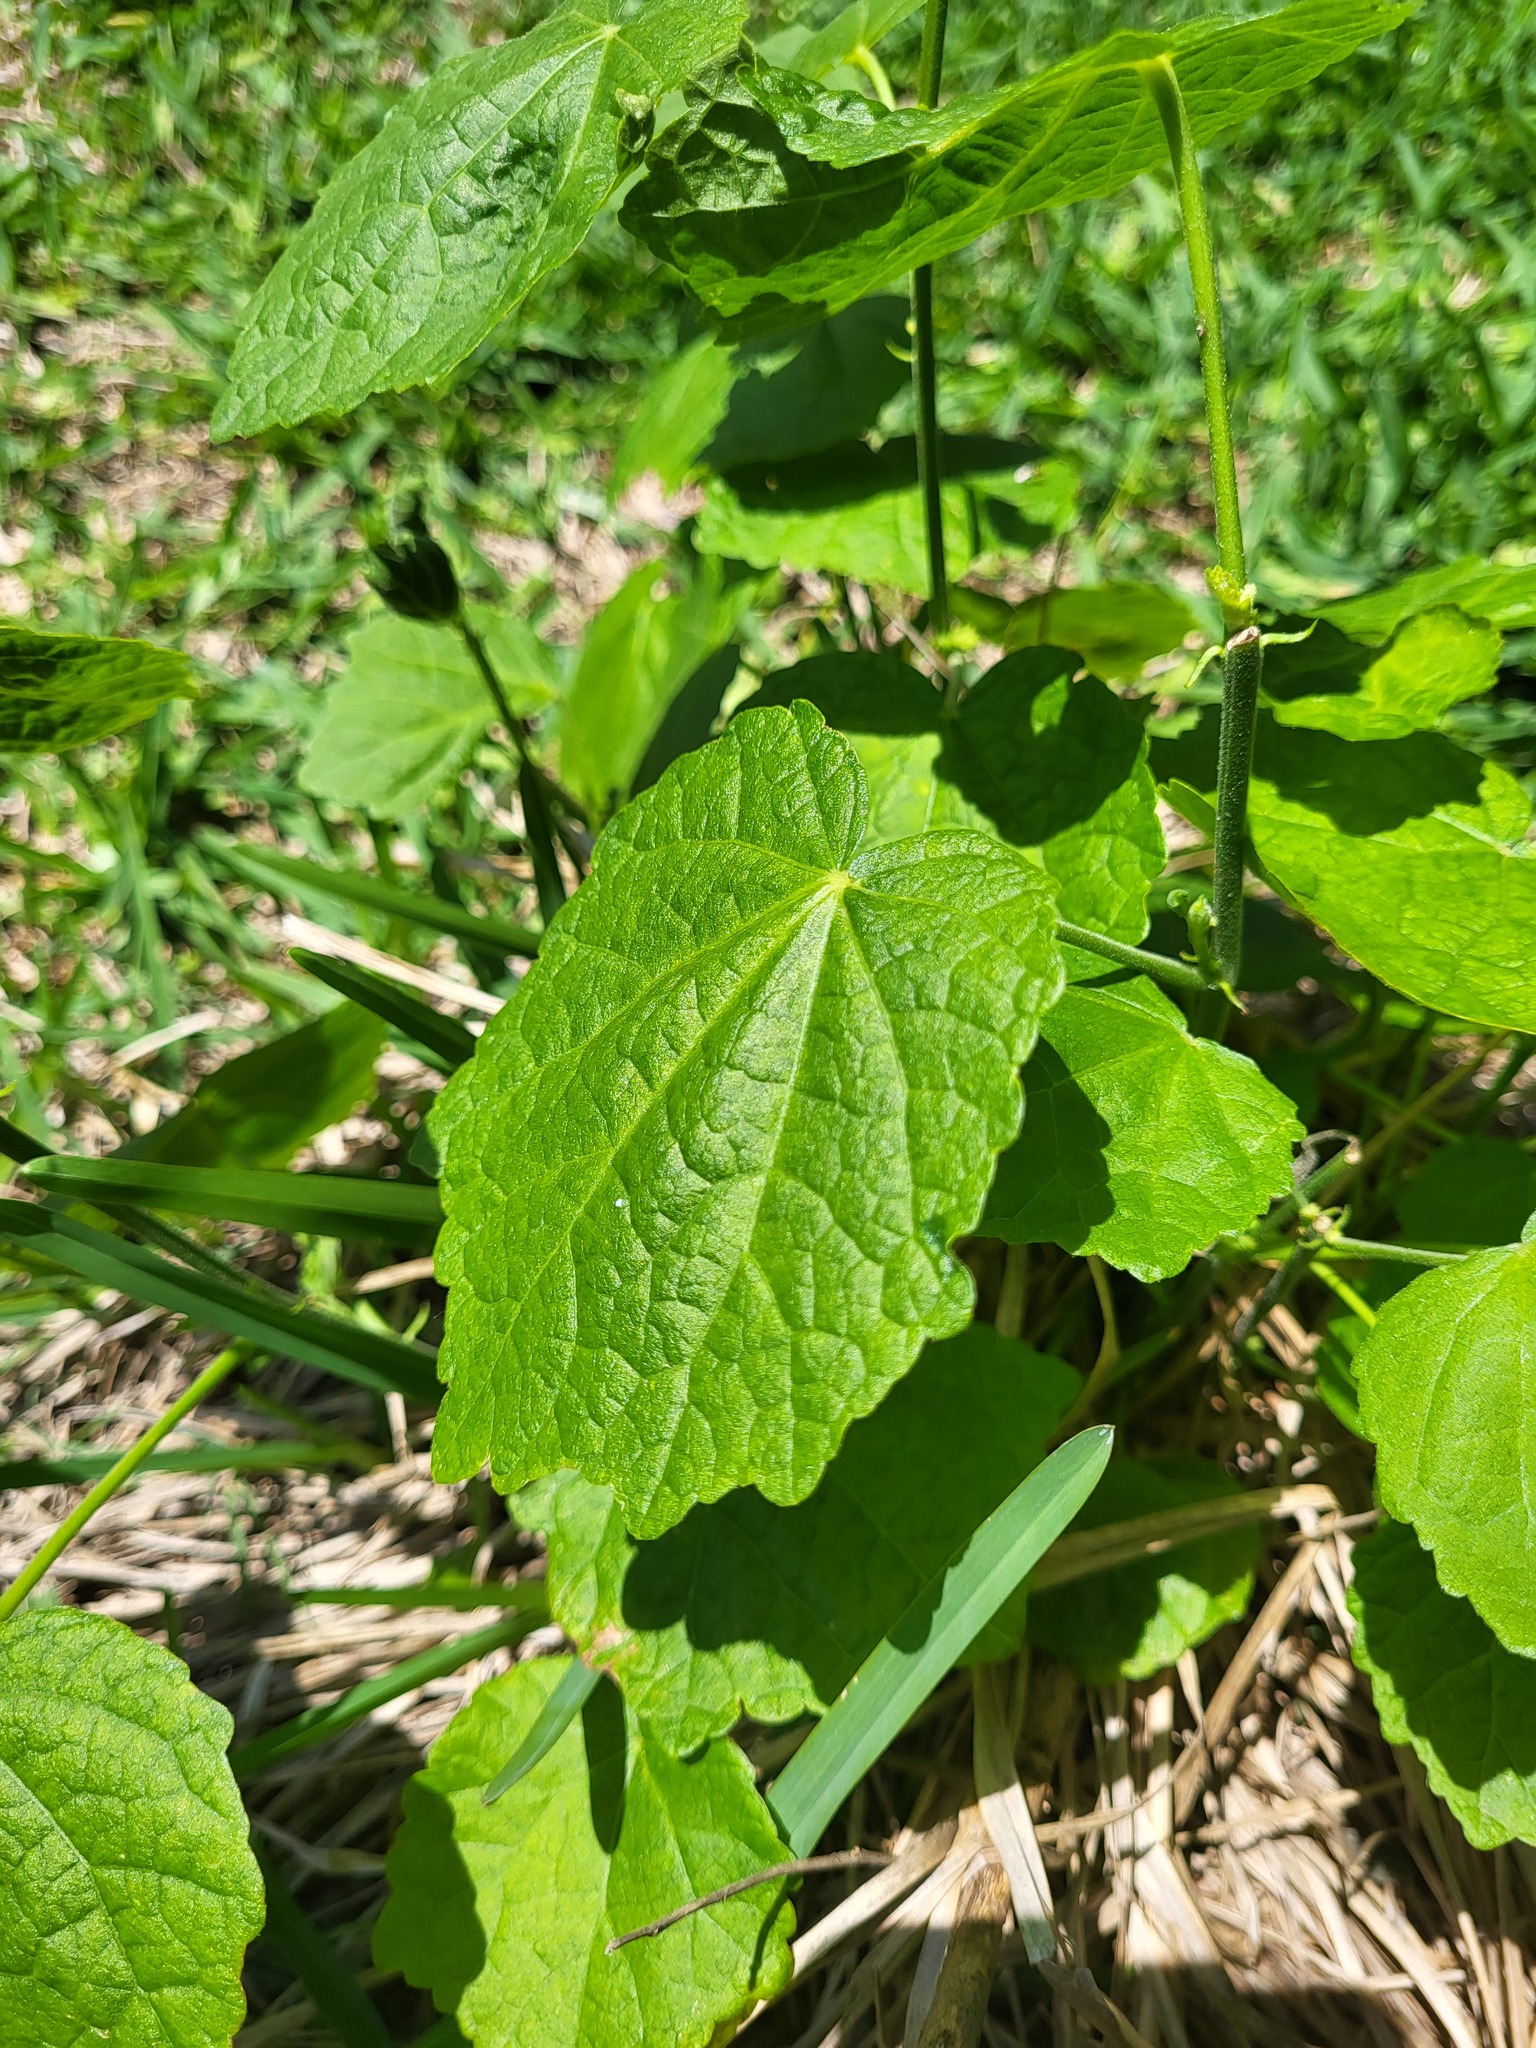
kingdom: Plantae
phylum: Tracheophyta
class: Magnoliopsida
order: Malvales
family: Malvaceae
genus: Malvaviscus
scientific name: Malvaviscus arboreus
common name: Wax mallow
